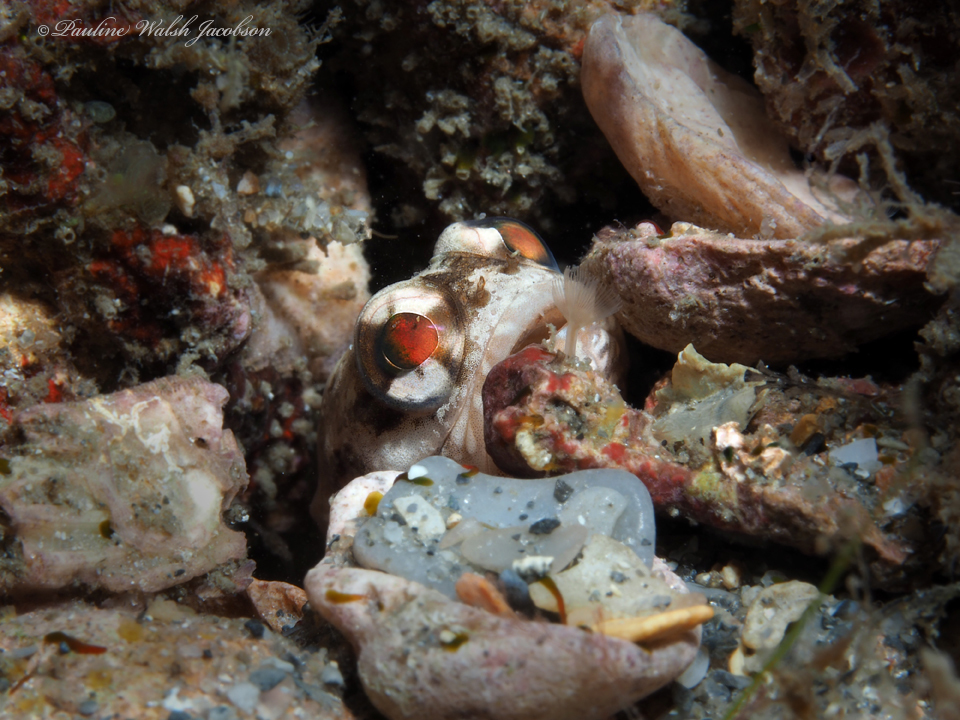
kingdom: Animalia
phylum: Chordata
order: Perciformes
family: Opistognathidae
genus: Opistognathus
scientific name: Opistognathus macrognathus
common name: Banded jawfish
